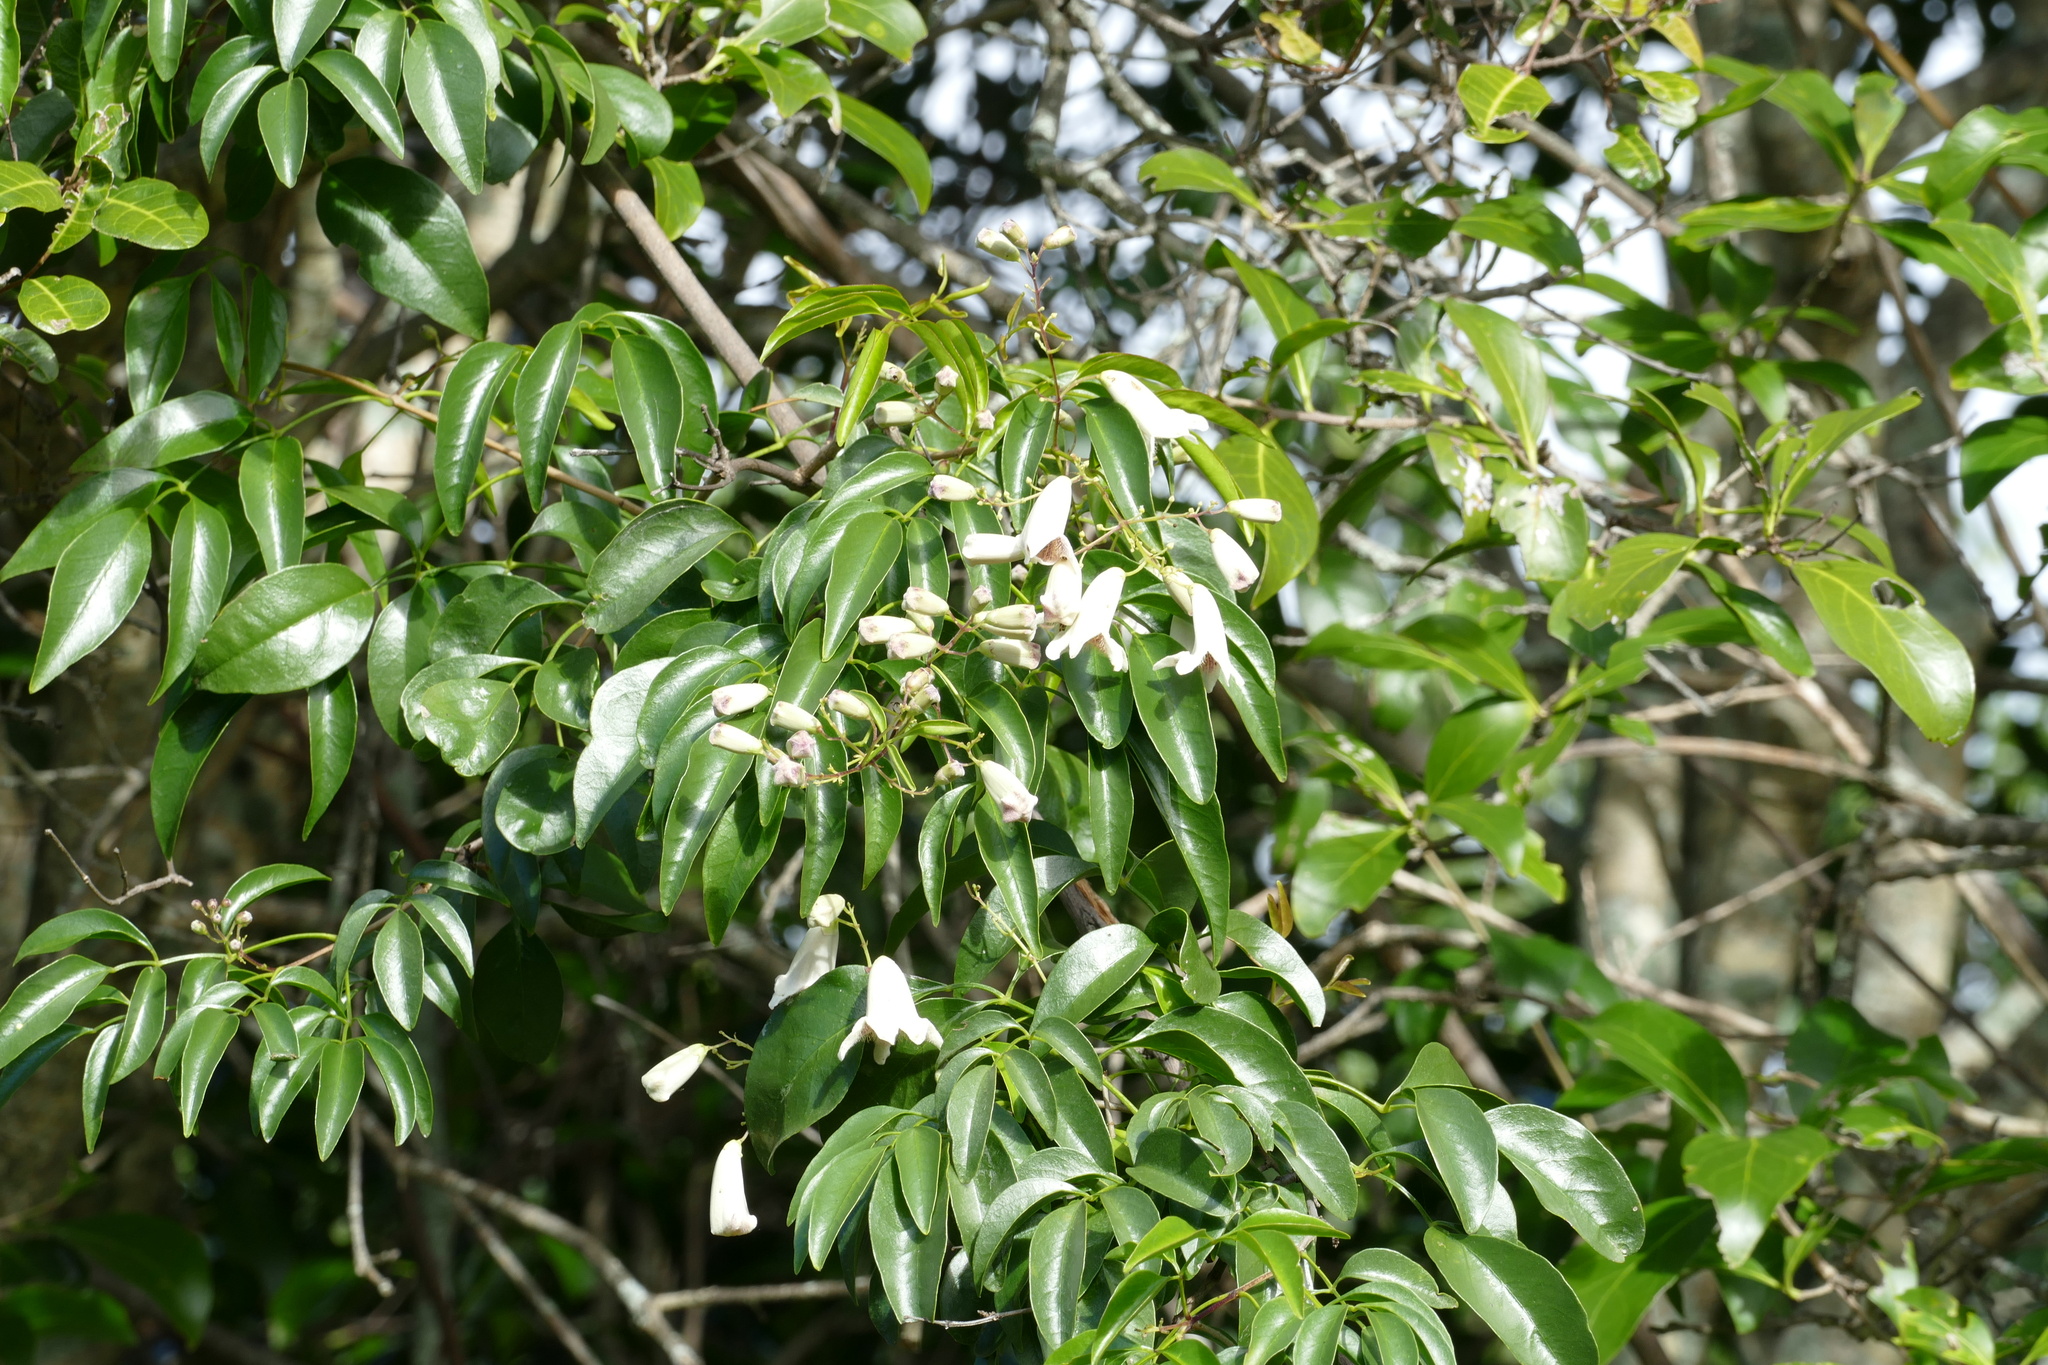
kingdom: Plantae
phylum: Tracheophyta
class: Magnoliopsida
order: Lamiales
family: Bignoniaceae
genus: Pandorea
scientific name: Pandorea pandorana
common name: Wonga-wonga-vine
